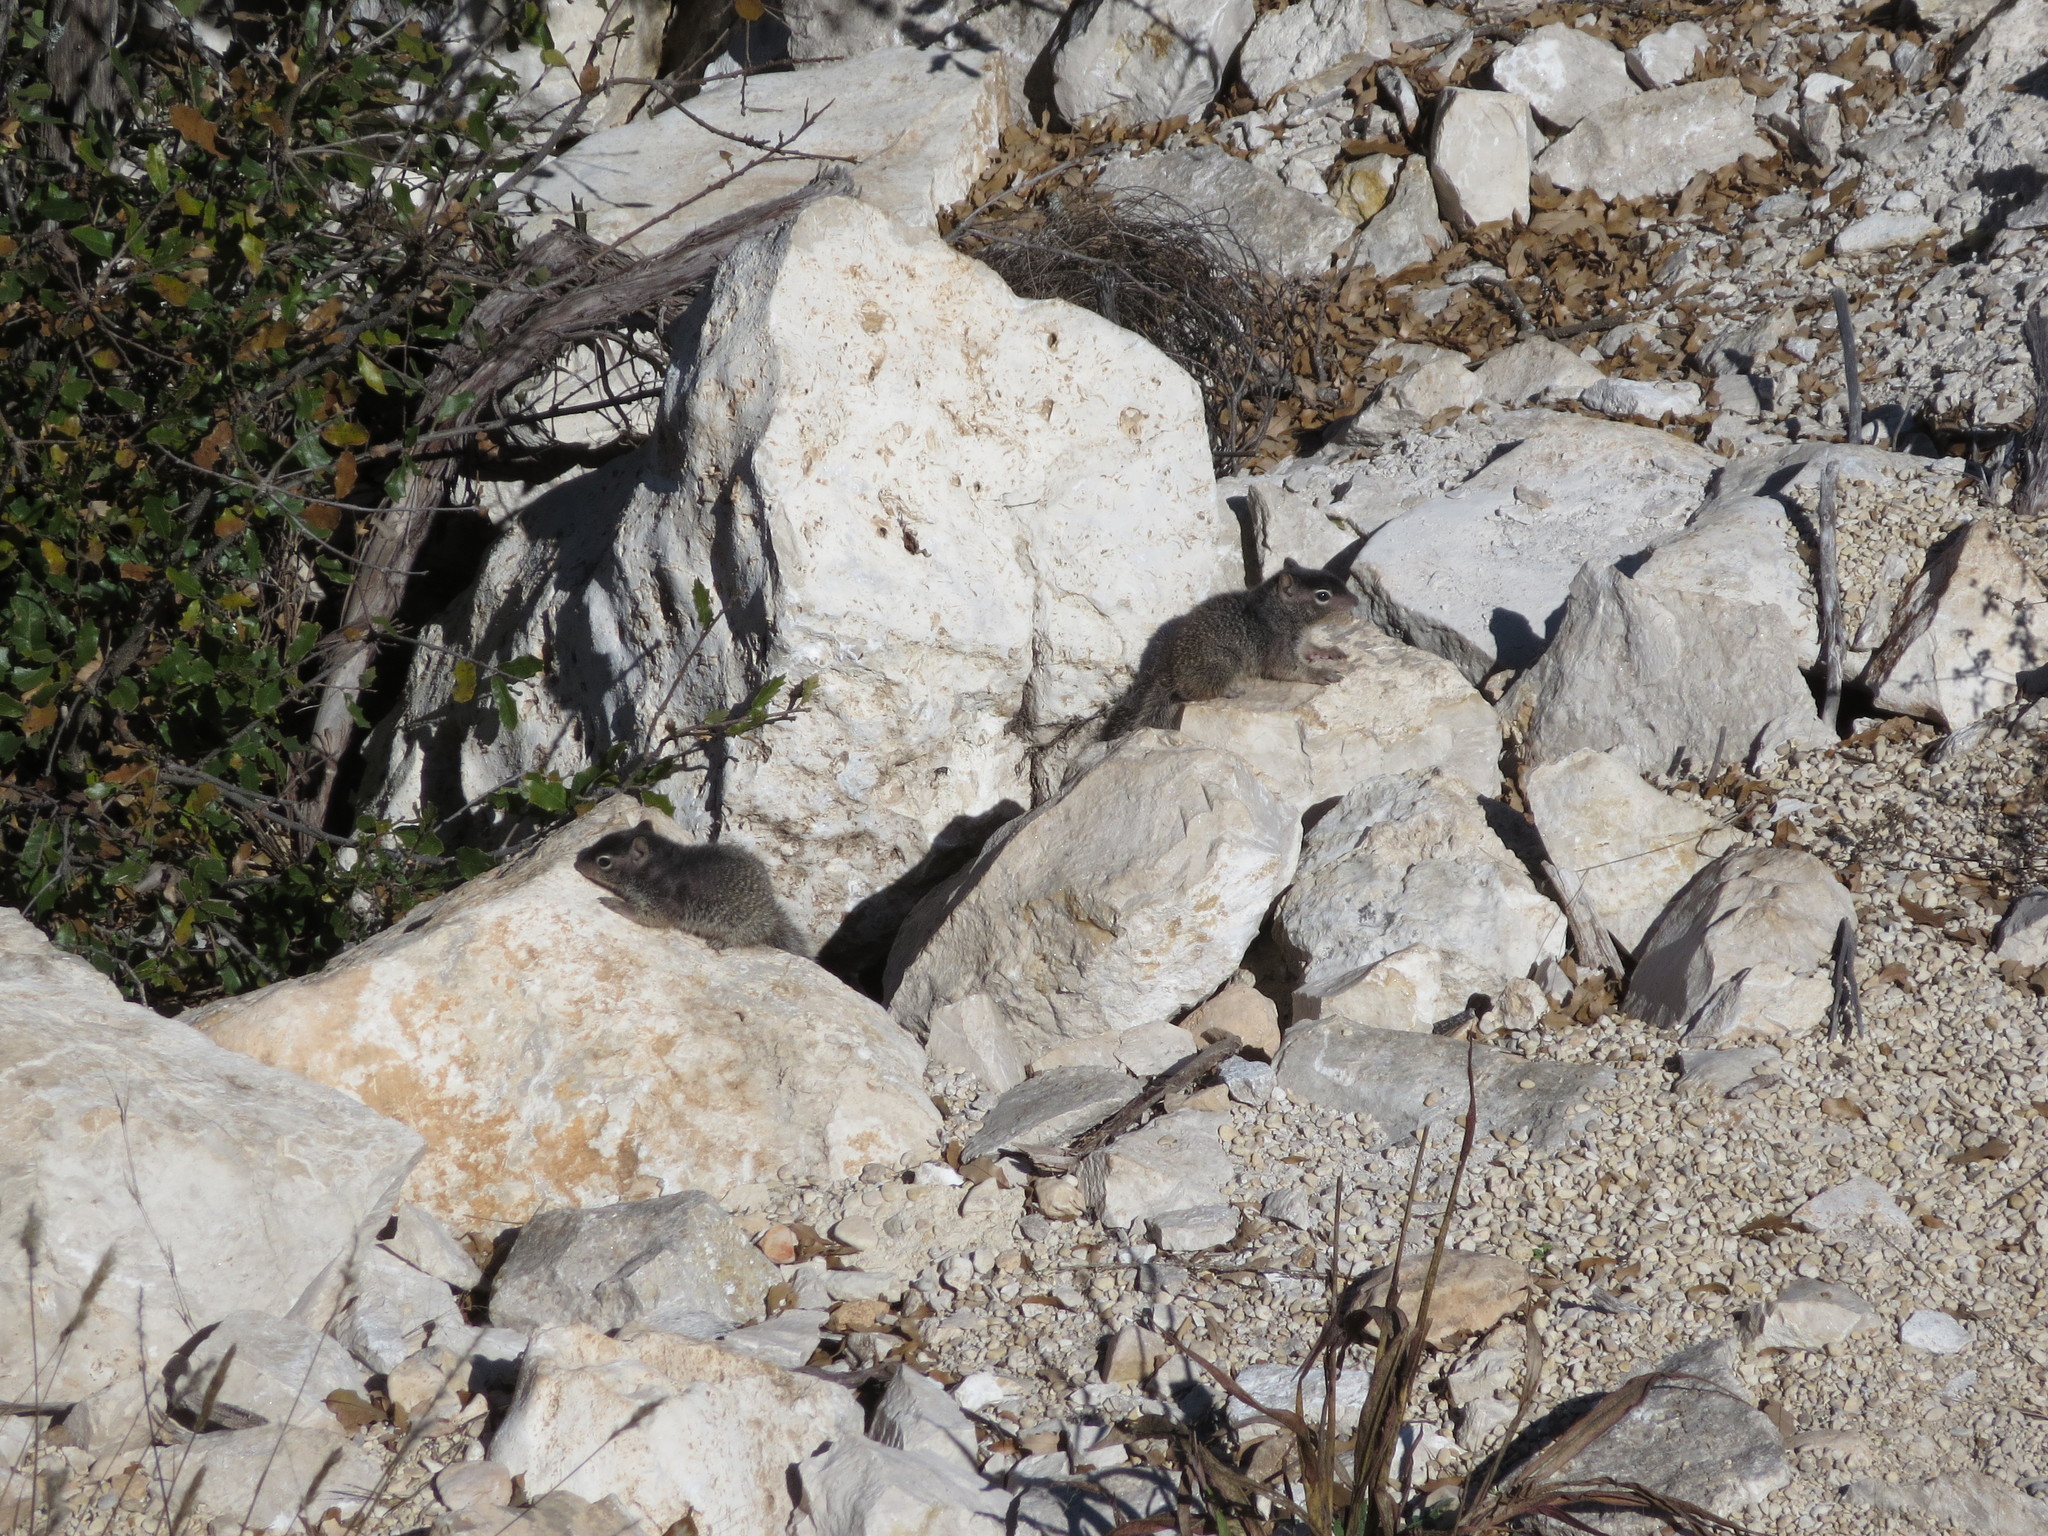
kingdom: Animalia
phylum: Chordata
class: Mammalia
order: Rodentia
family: Sciuridae
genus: Otospermophilus
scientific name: Otospermophilus variegatus
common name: Rock squirrel
